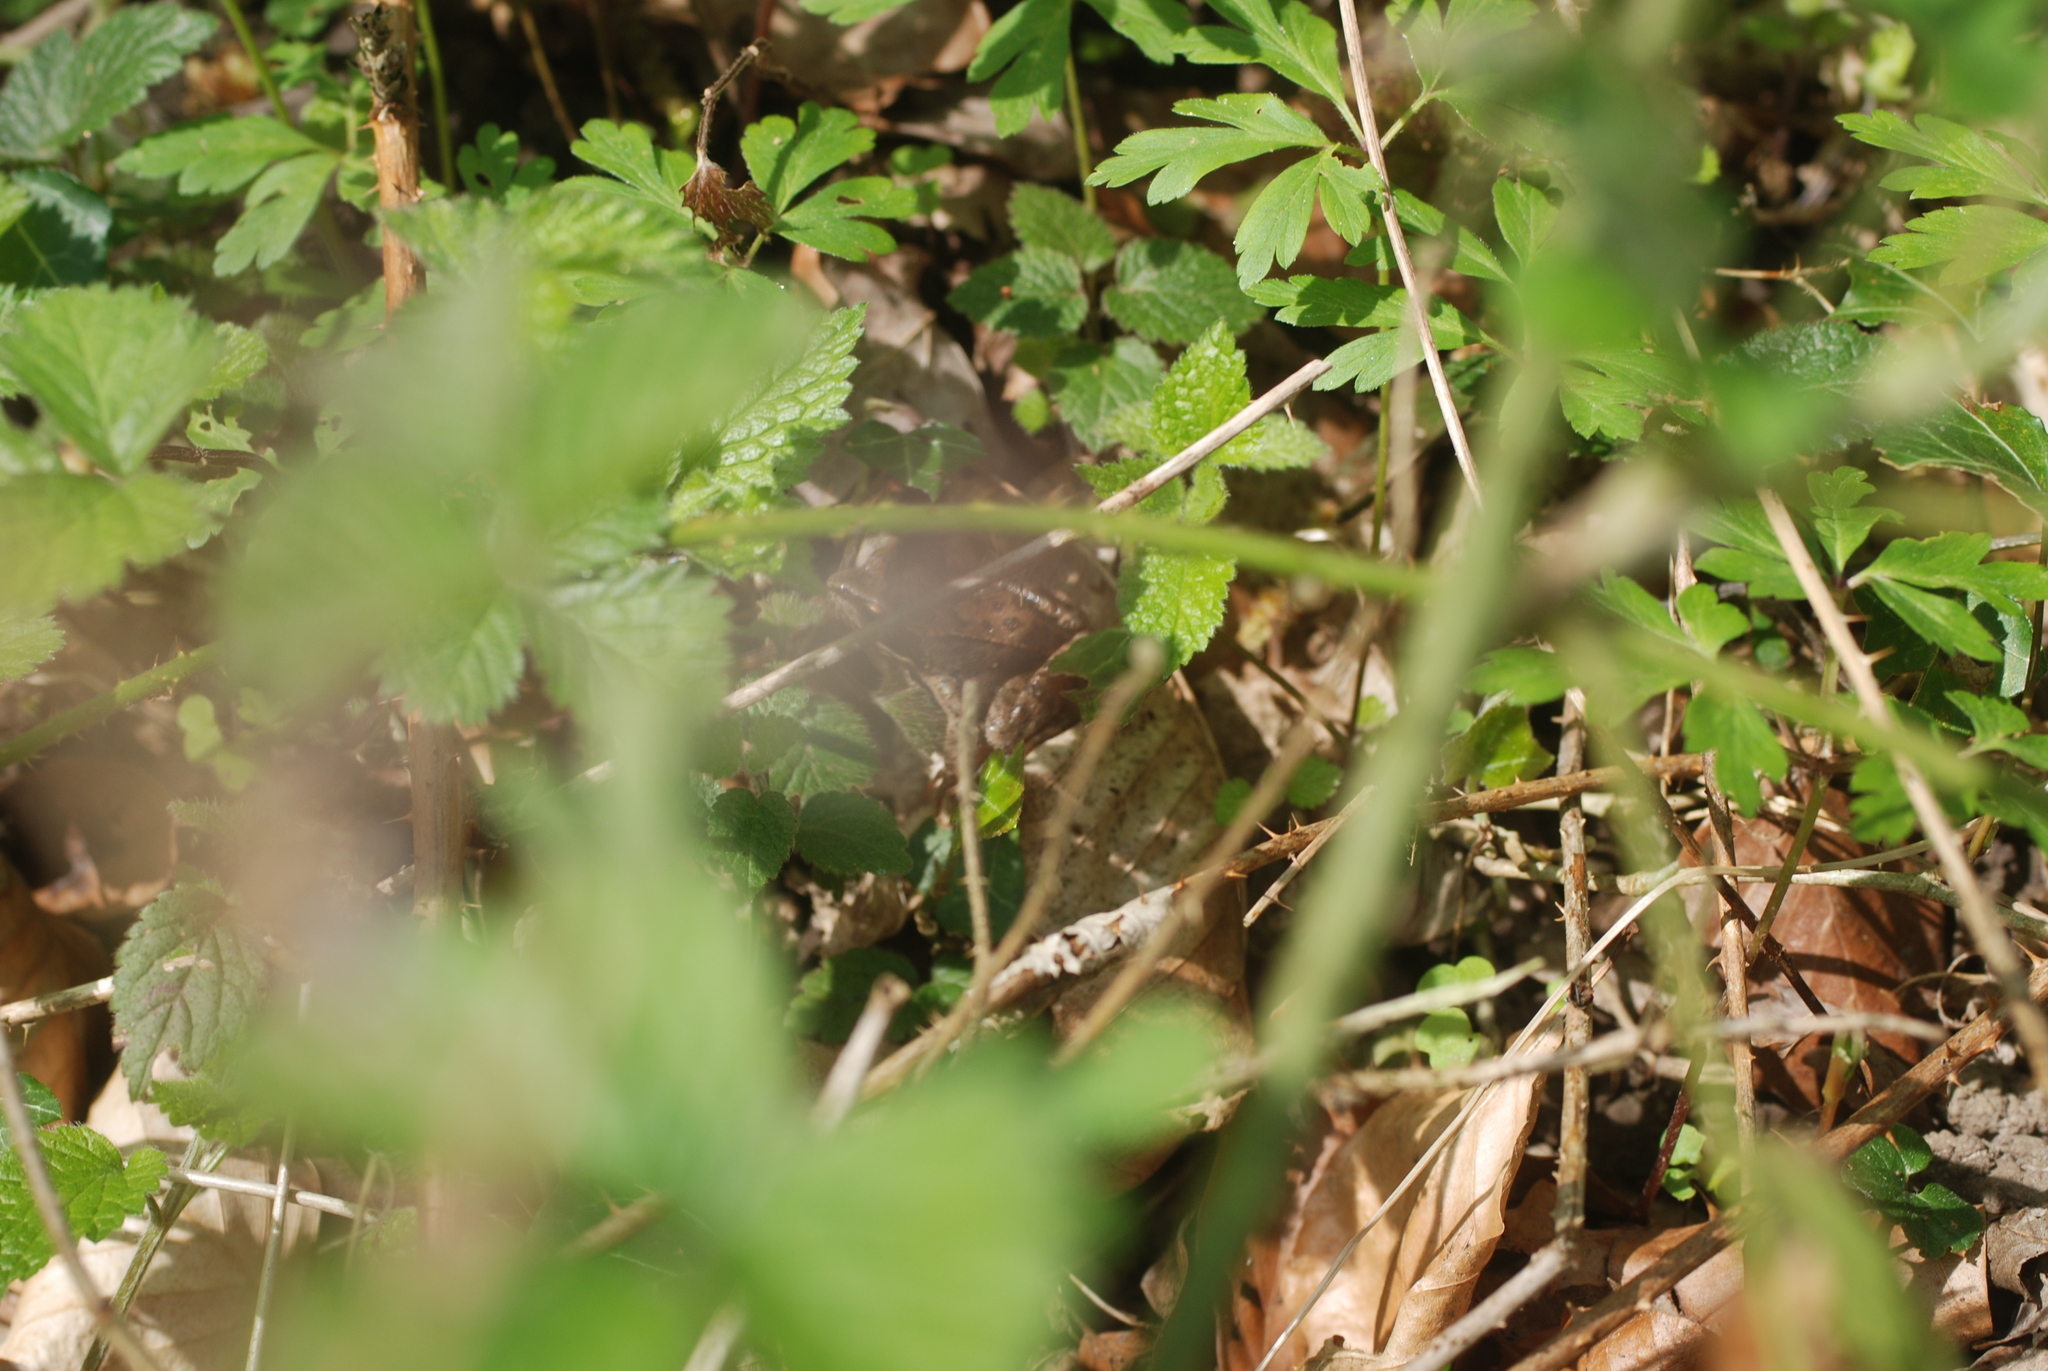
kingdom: Animalia
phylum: Chordata
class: Amphibia
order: Anura
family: Ranidae
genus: Rana
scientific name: Rana temporaria
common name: Common frog
